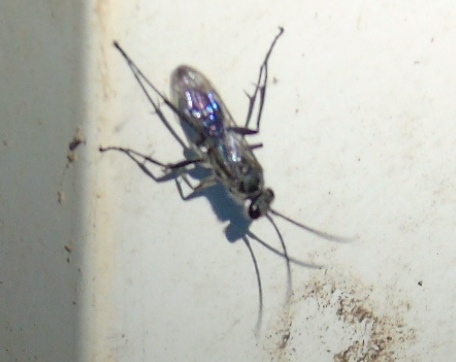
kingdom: Animalia
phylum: Arthropoda
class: Insecta
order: Hymenoptera
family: Pompilidae
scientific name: Pompilidae
